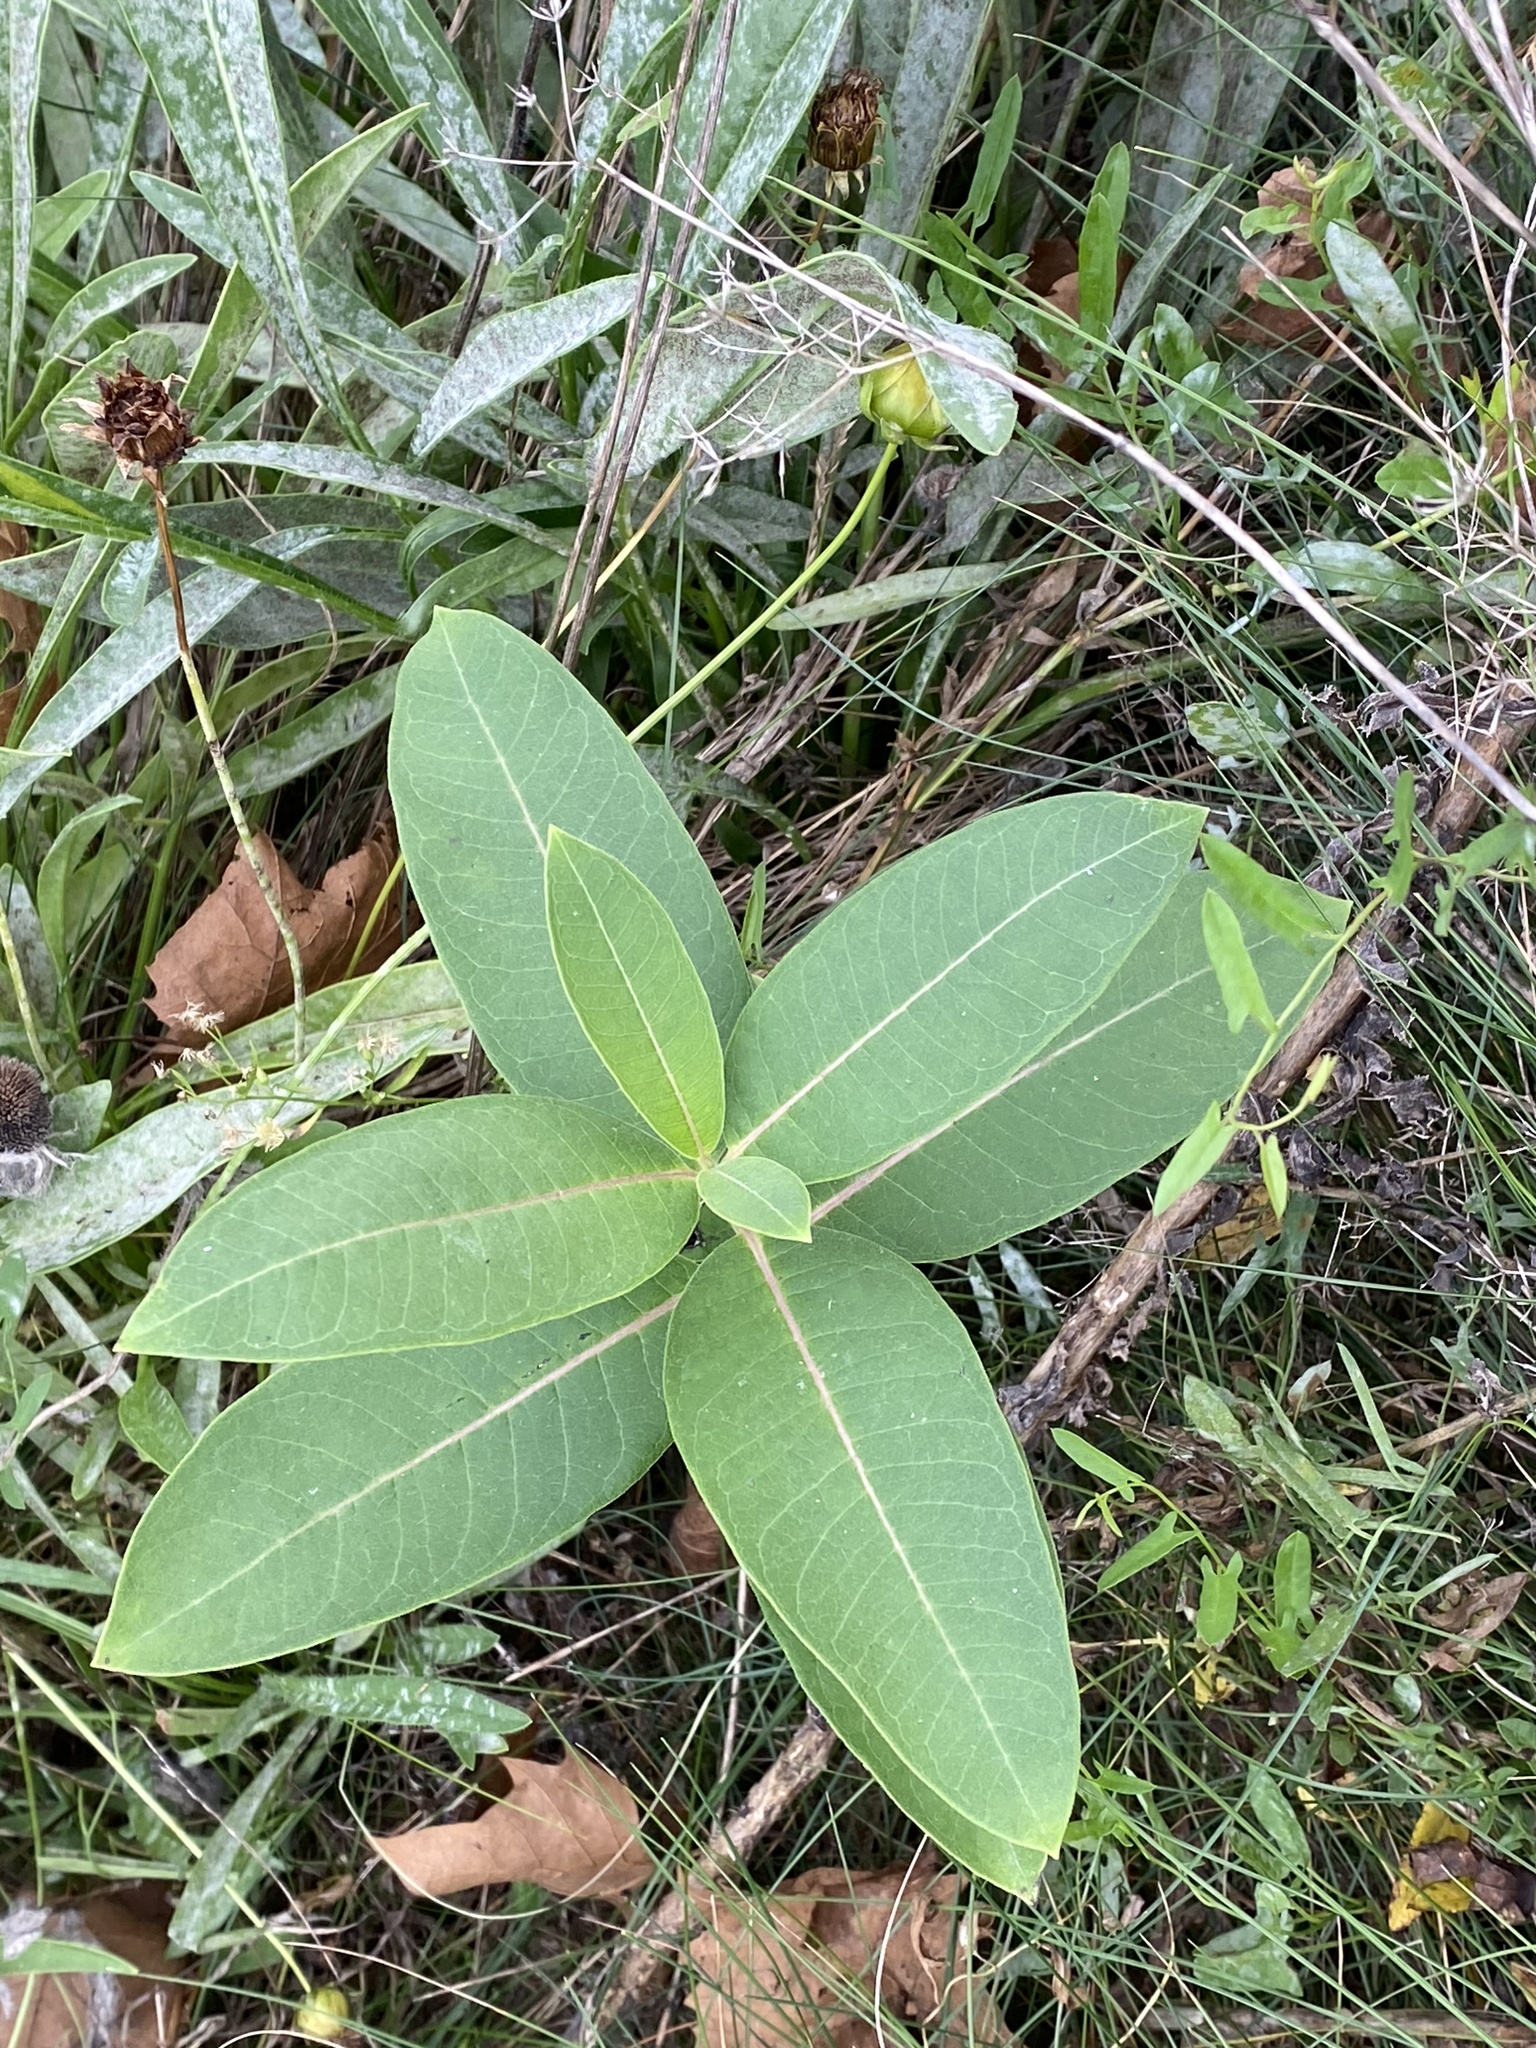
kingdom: Plantae
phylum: Tracheophyta
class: Magnoliopsida
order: Gentianales
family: Apocynaceae
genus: Asclepias
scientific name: Asclepias syriaca
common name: Common milkweed
